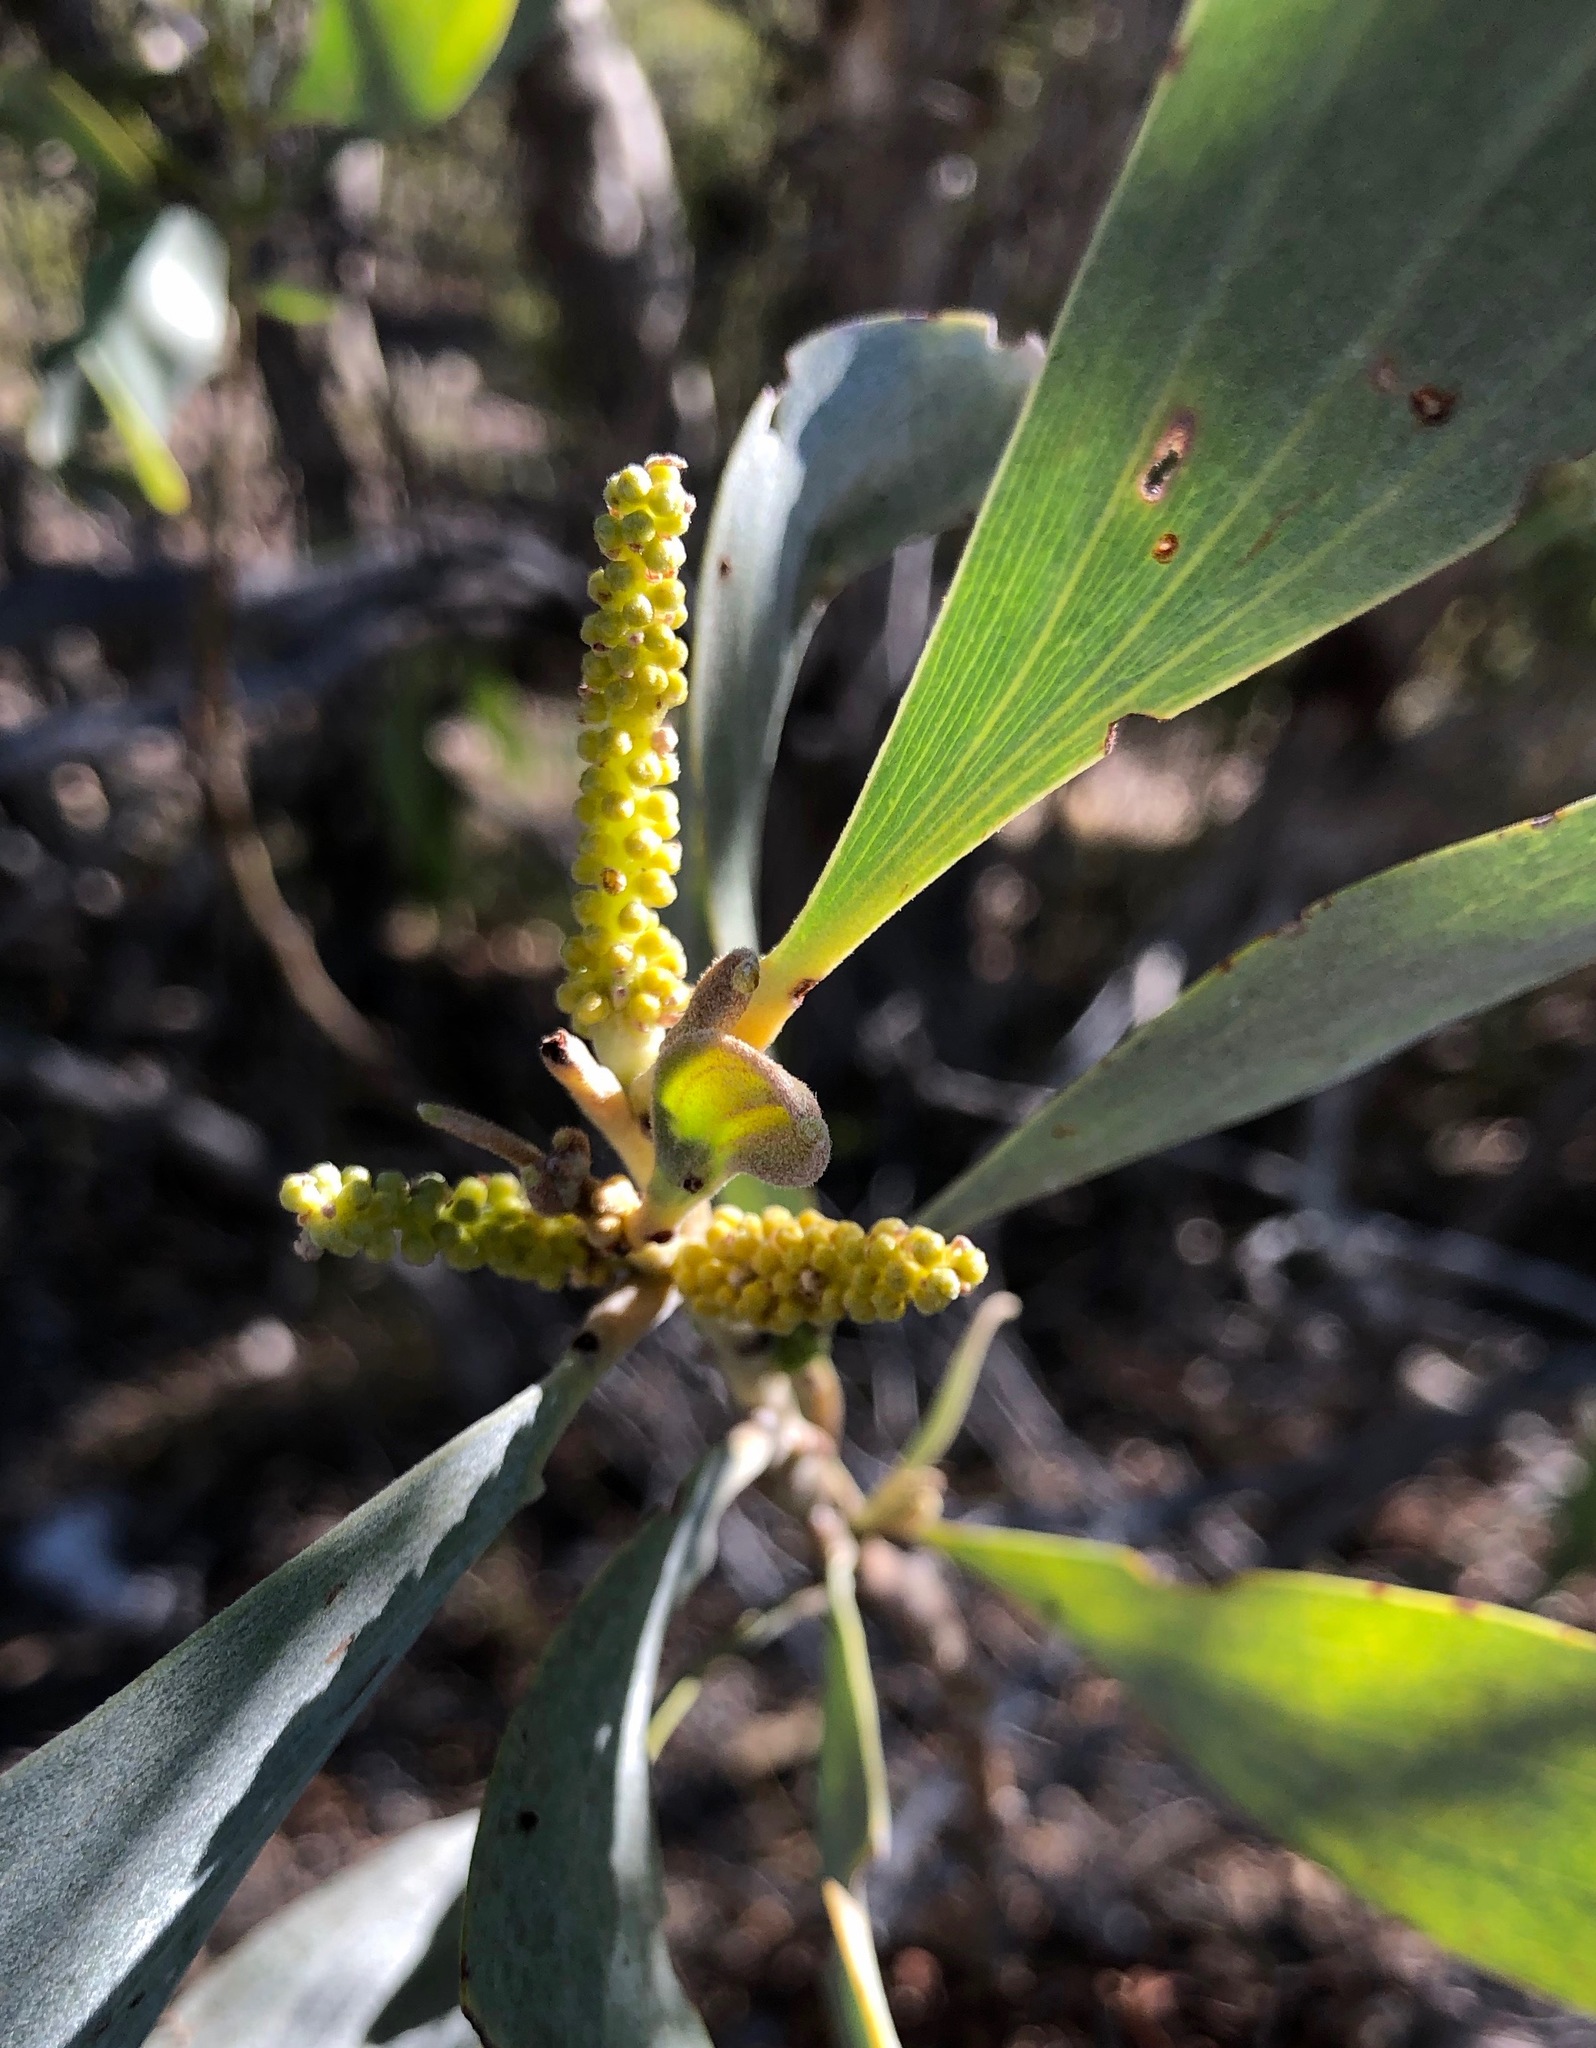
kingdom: Plantae
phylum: Tracheophyta
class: Magnoliopsida
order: Fabales
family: Fabaceae
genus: Acacia
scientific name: Acacia colei
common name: Cole's wattle
